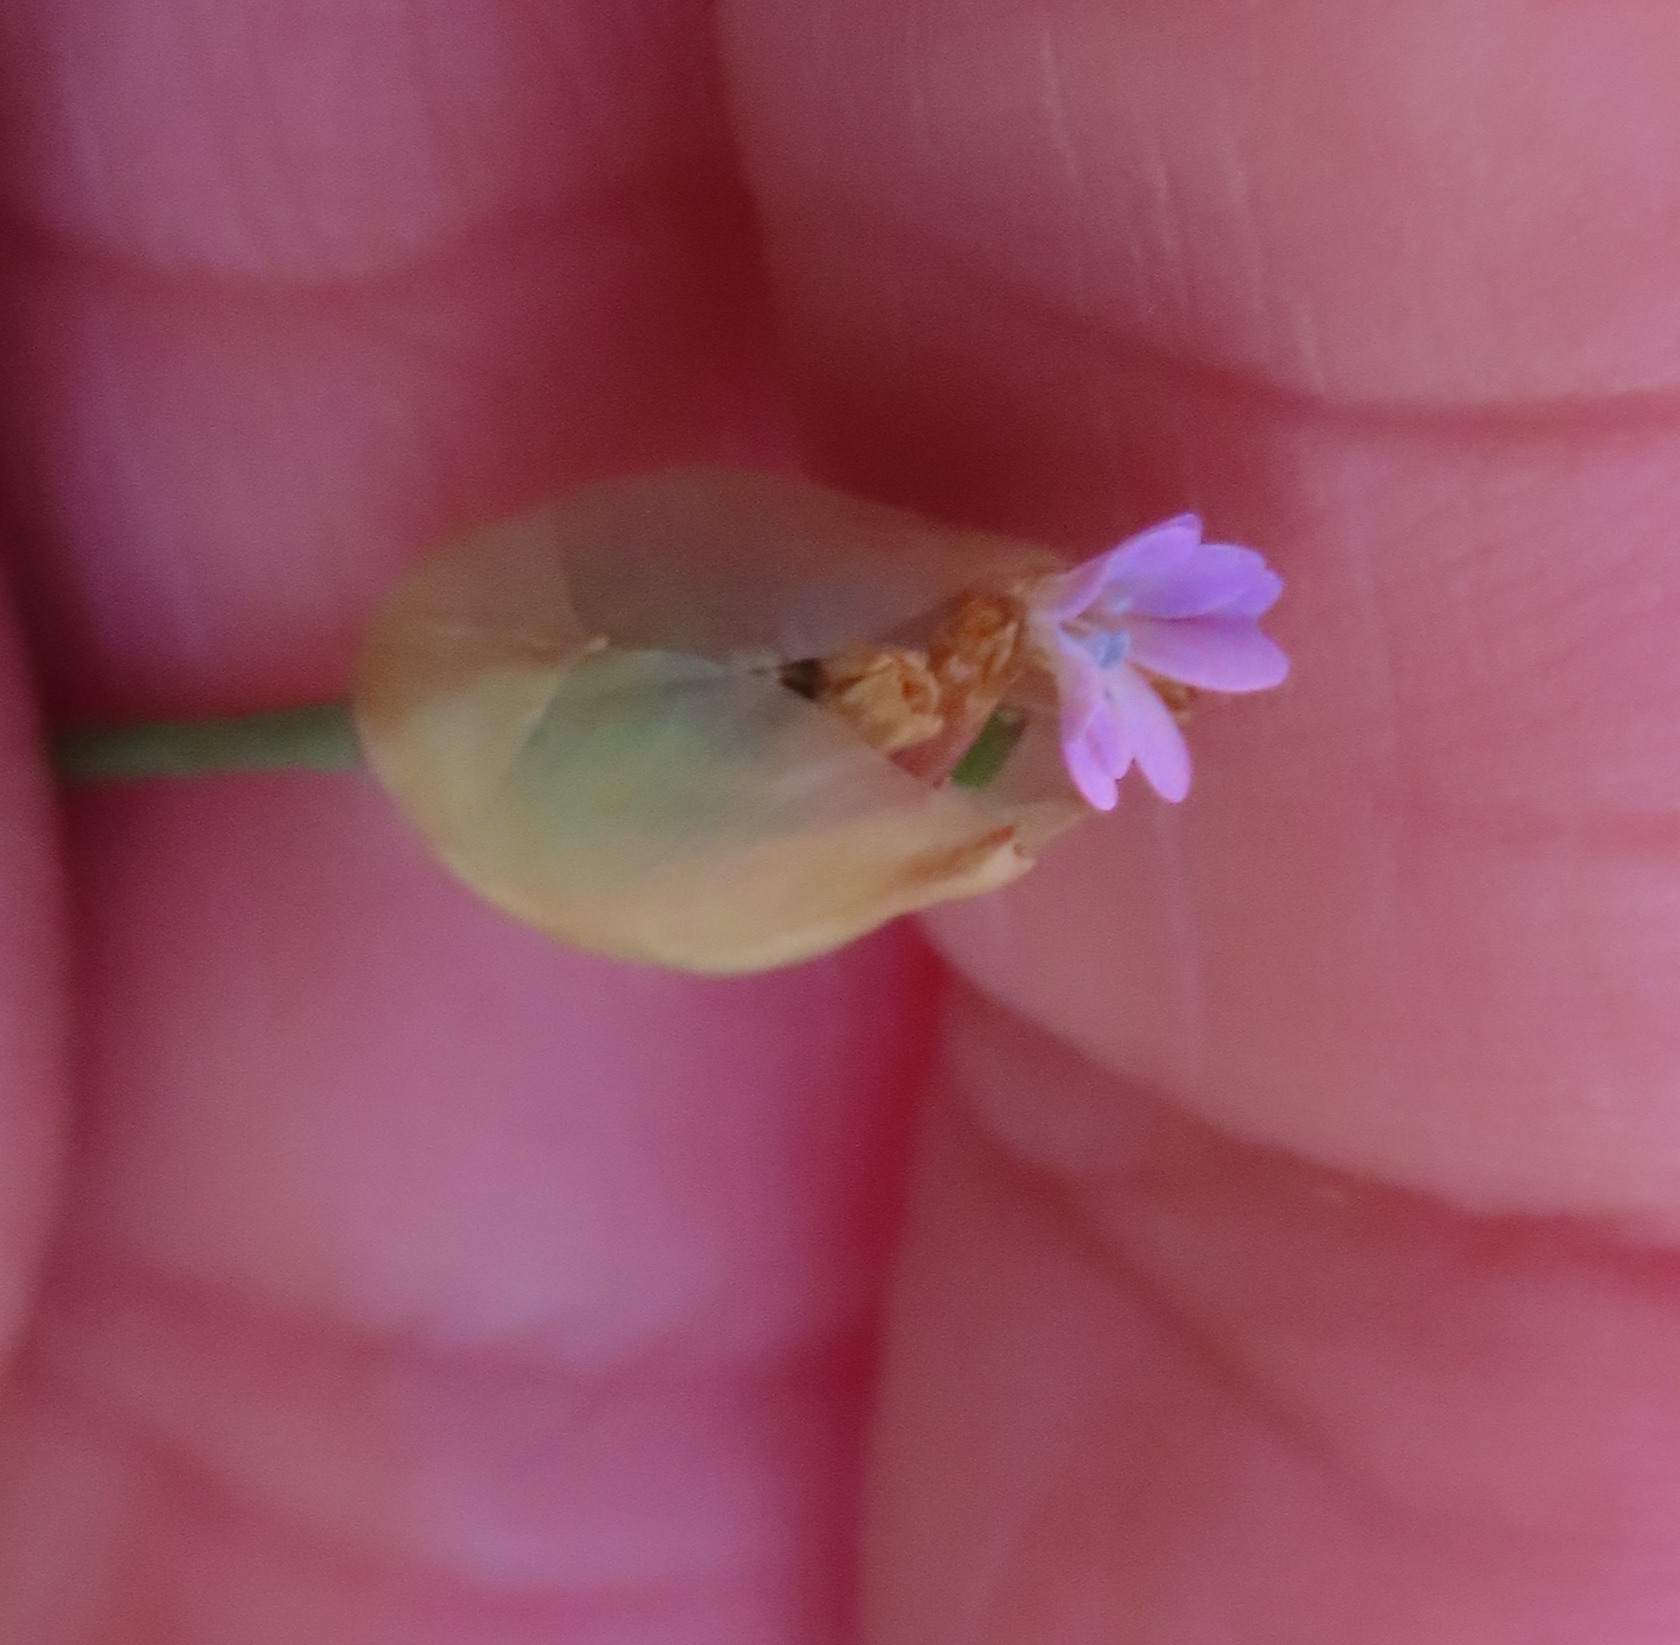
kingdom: Plantae
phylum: Tracheophyta
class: Magnoliopsida
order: Caryophyllales
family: Caryophyllaceae
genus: Petrorhagia
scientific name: Petrorhagia prolifera
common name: Proliferous pink
